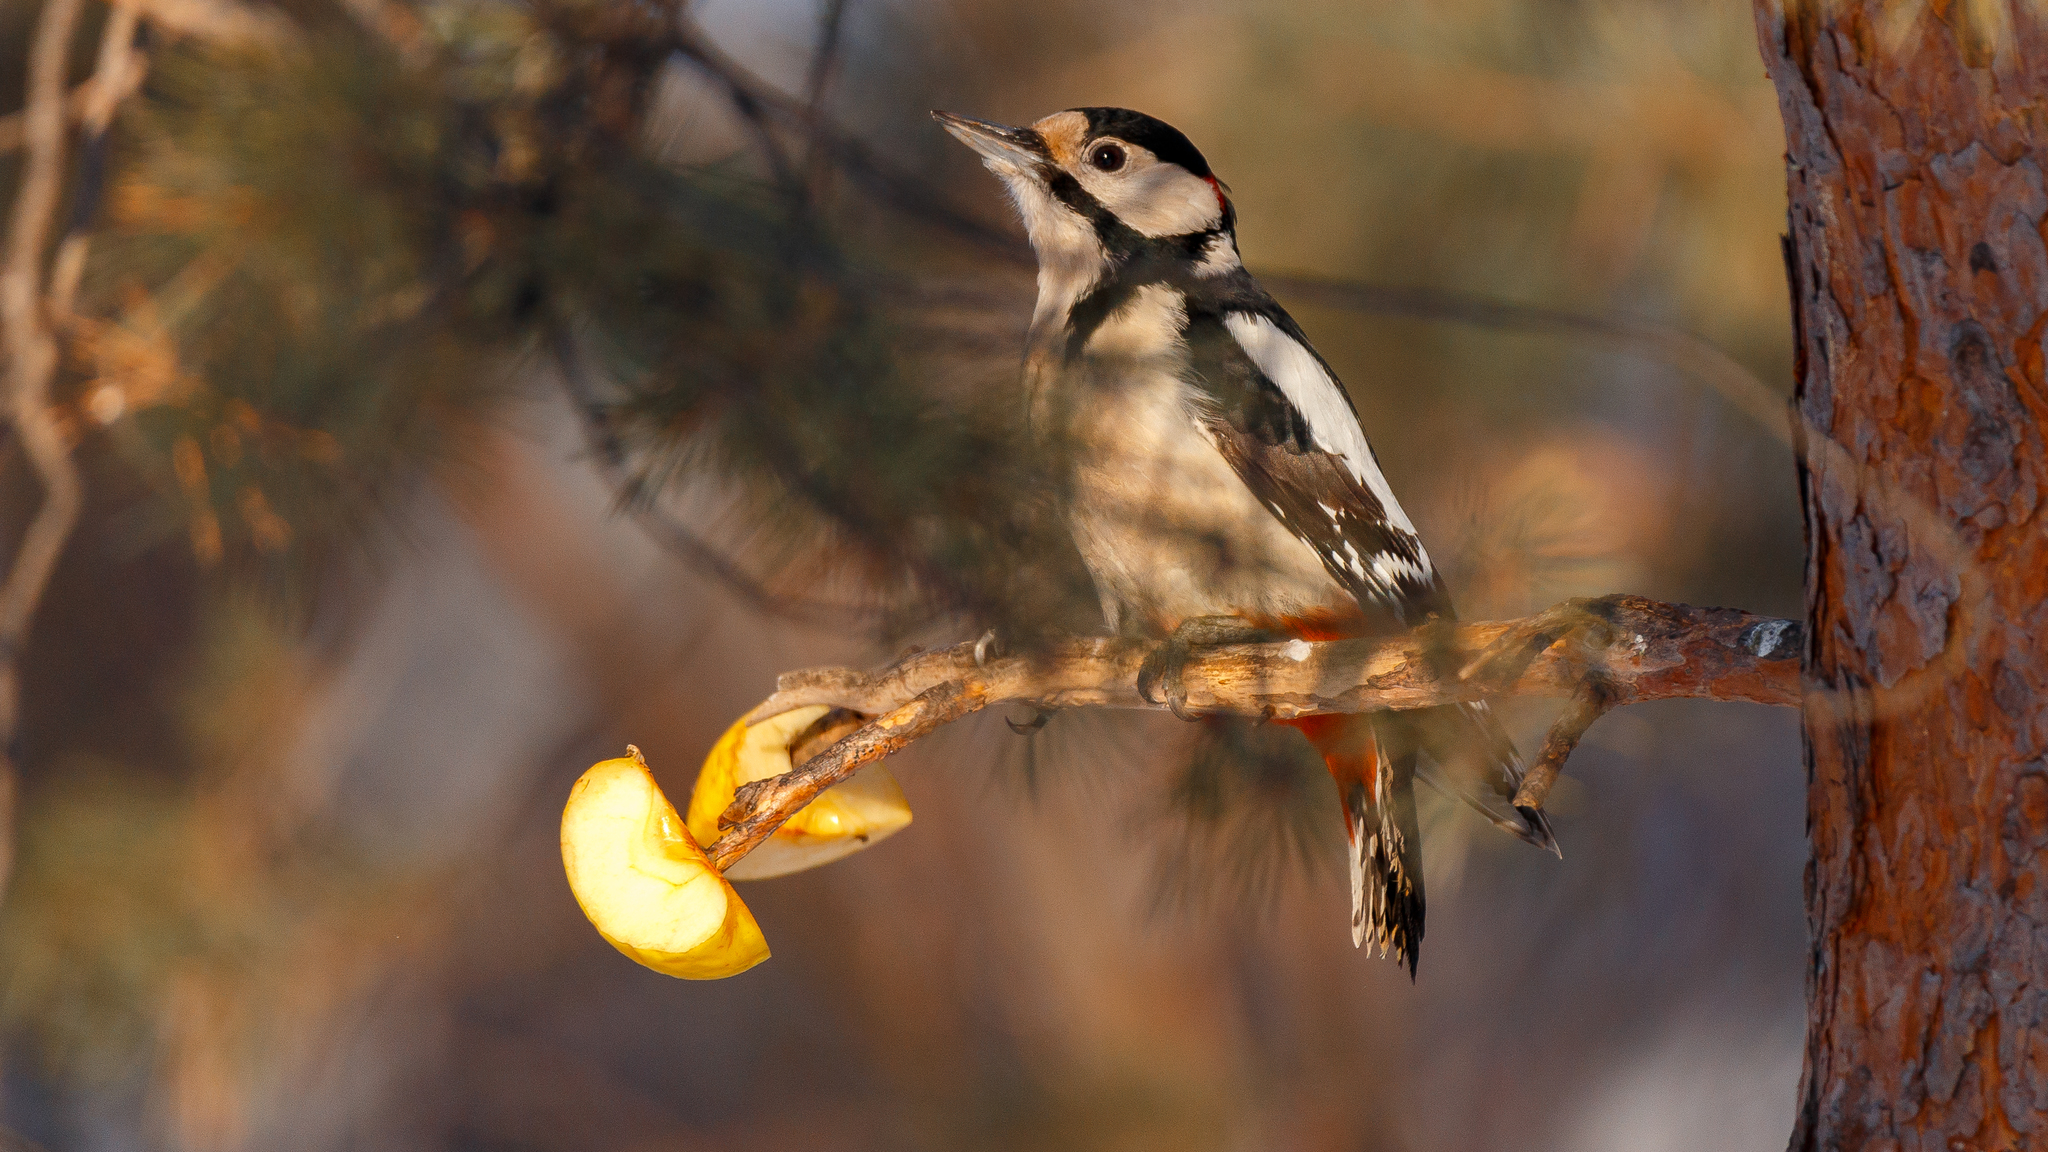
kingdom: Animalia
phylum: Chordata
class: Aves
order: Piciformes
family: Picidae
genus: Dendrocopos
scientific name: Dendrocopos major
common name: Great spotted woodpecker
